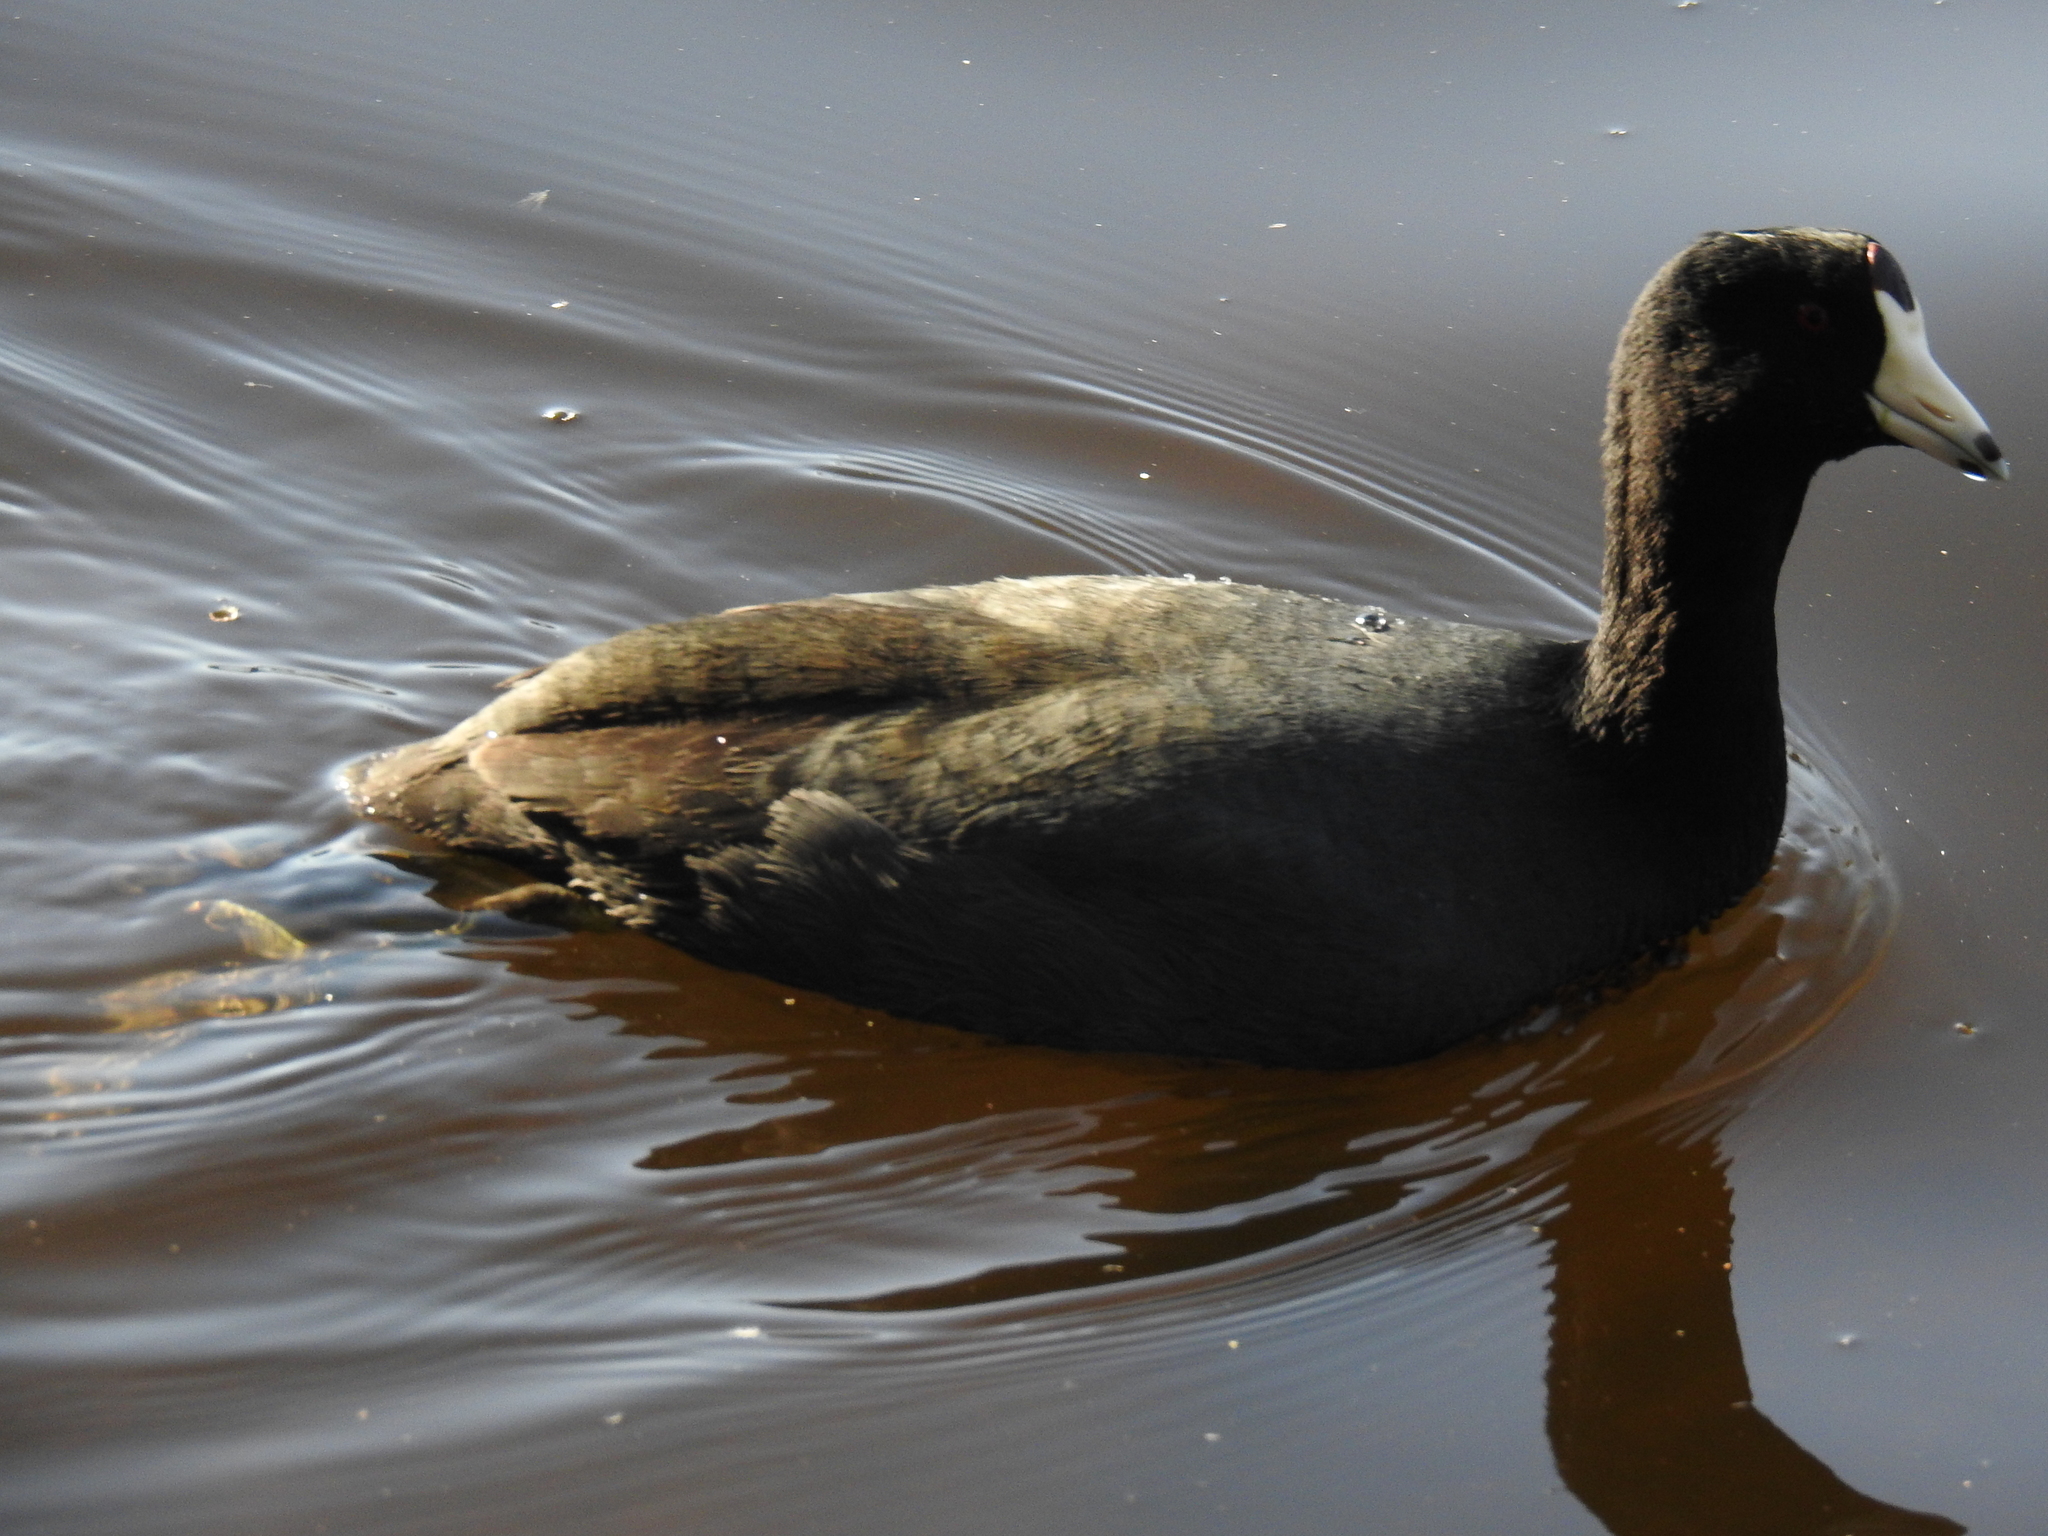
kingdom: Animalia
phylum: Chordata
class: Aves
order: Gruiformes
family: Rallidae
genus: Fulica
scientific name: Fulica americana
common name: American coot
